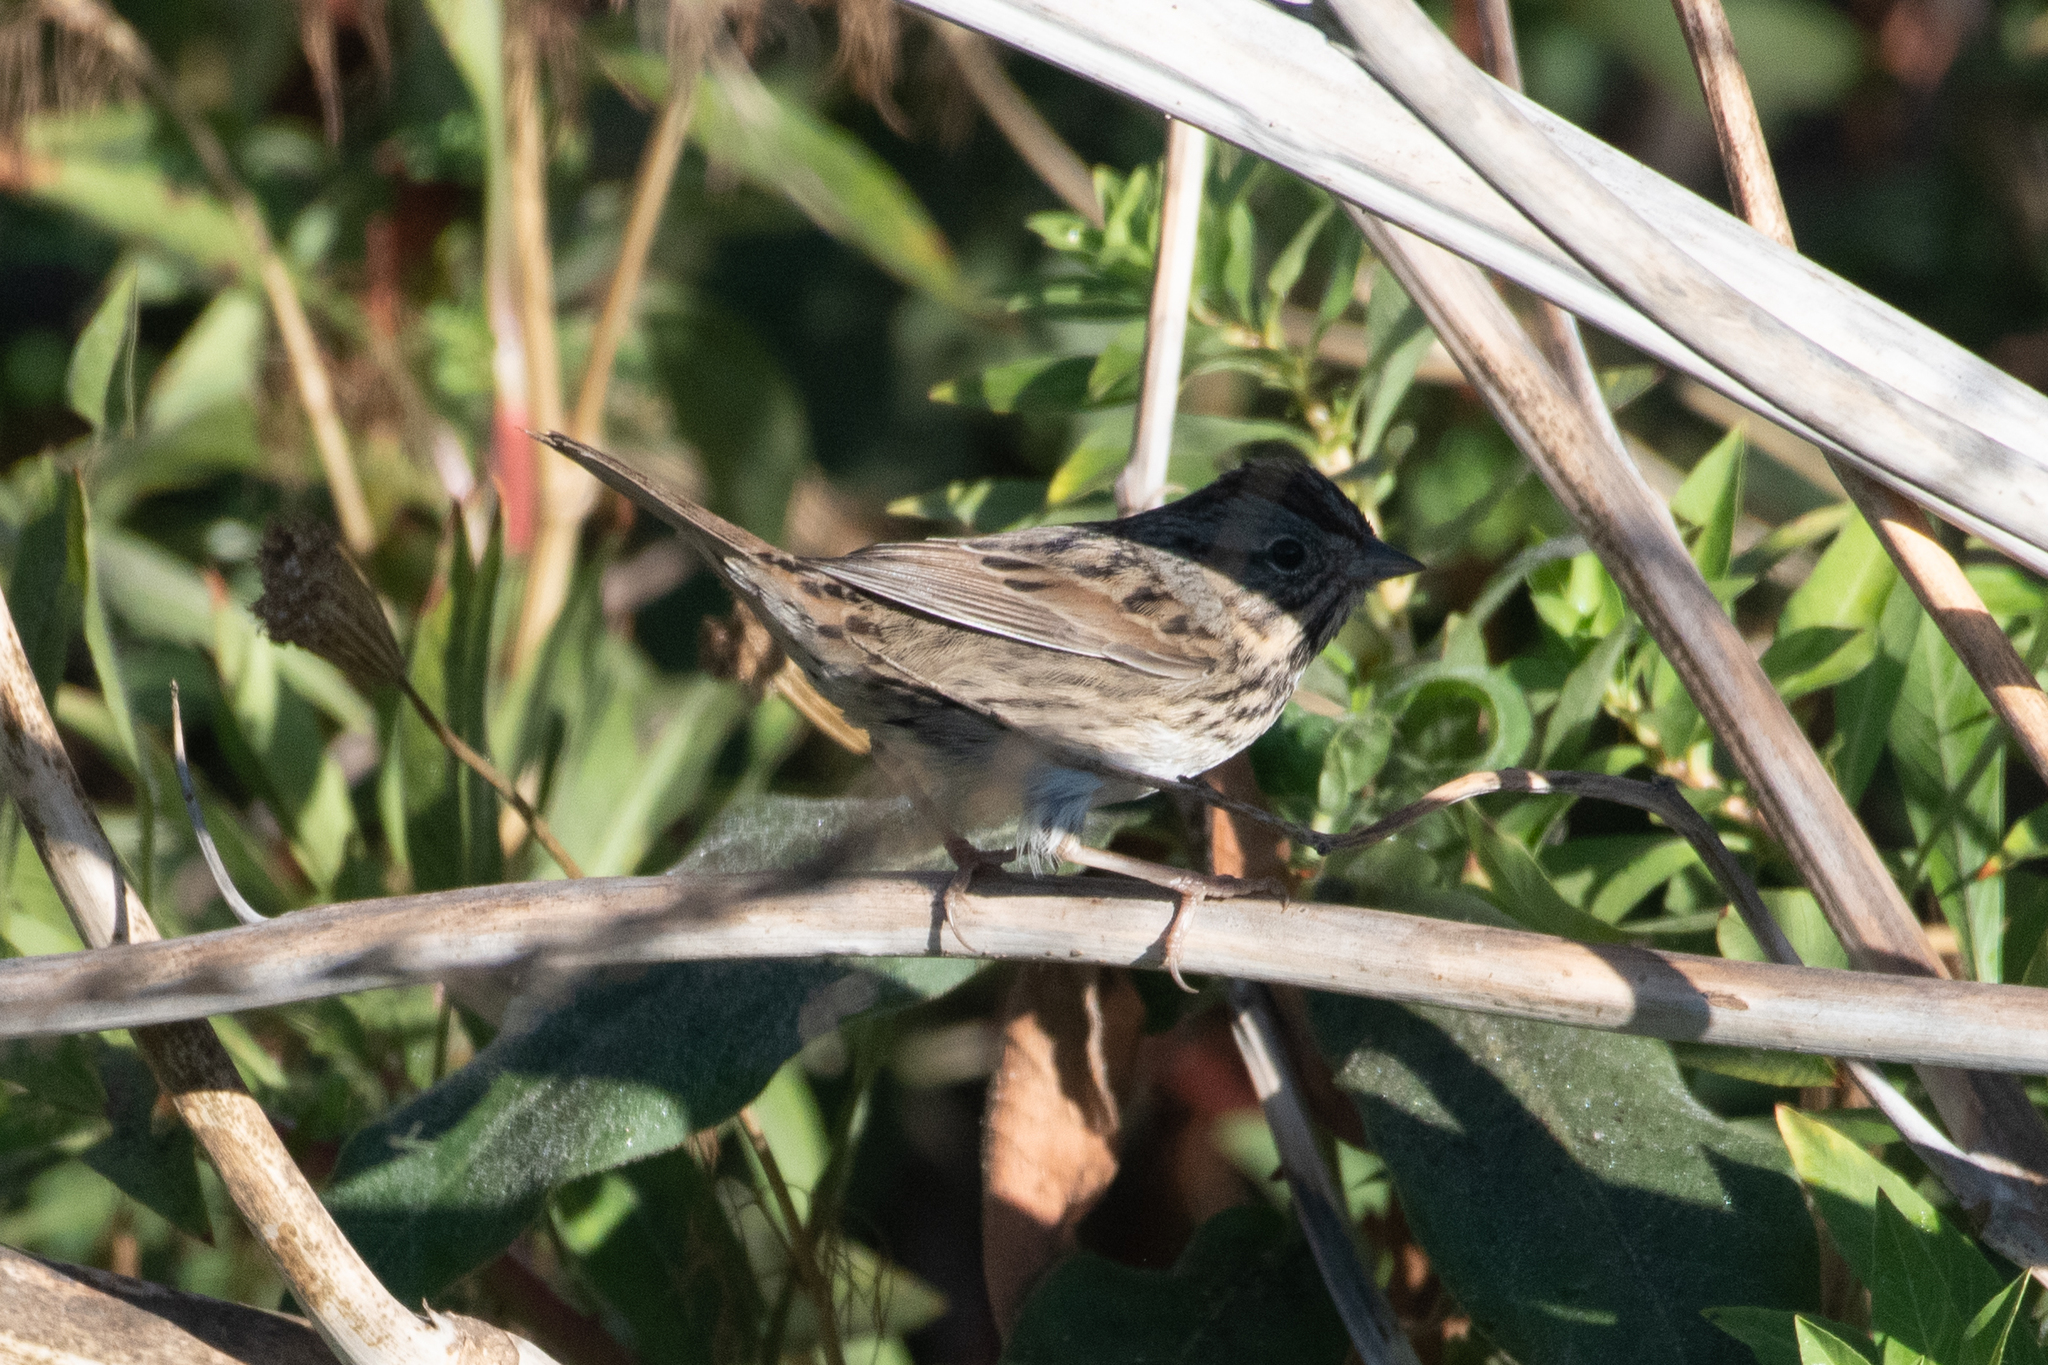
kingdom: Animalia
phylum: Chordata
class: Aves
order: Passeriformes
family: Passerellidae
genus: Melospiza
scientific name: Melospiza lincolnii
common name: Lincoln's sparrow
